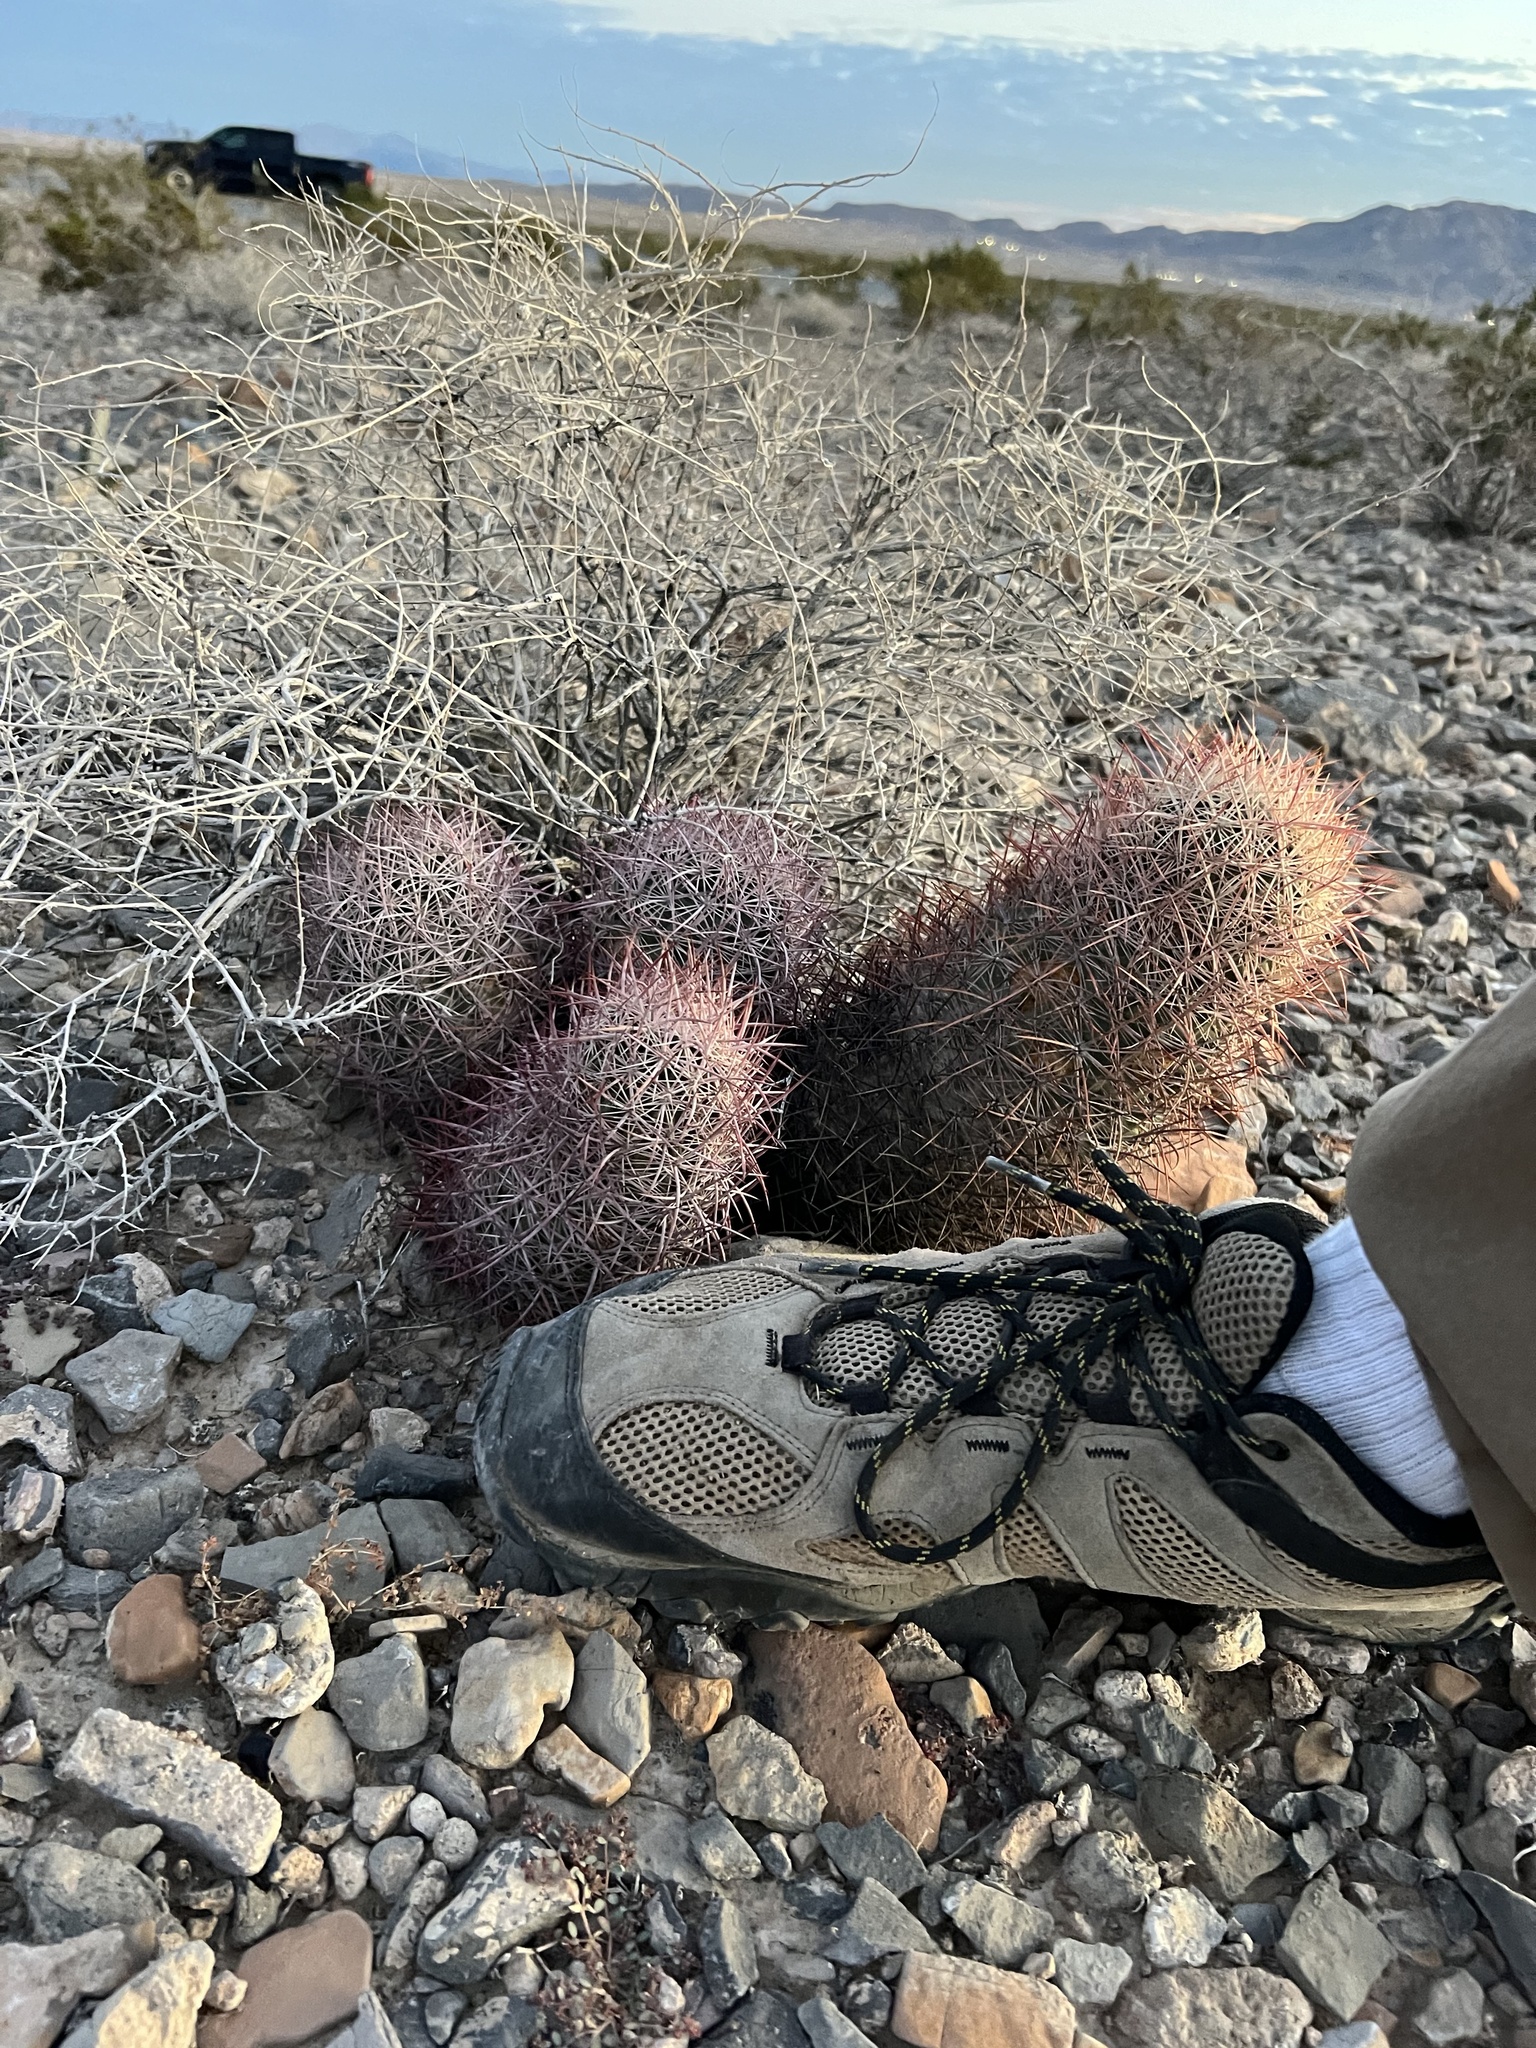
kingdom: Plantae
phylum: Tracheophyta
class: Magnoliopsida
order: Caryophyllales
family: Cactaceae
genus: Sclerocactus
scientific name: Sclerocactus johnsonii
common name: Eight-spine fishhook cactus
